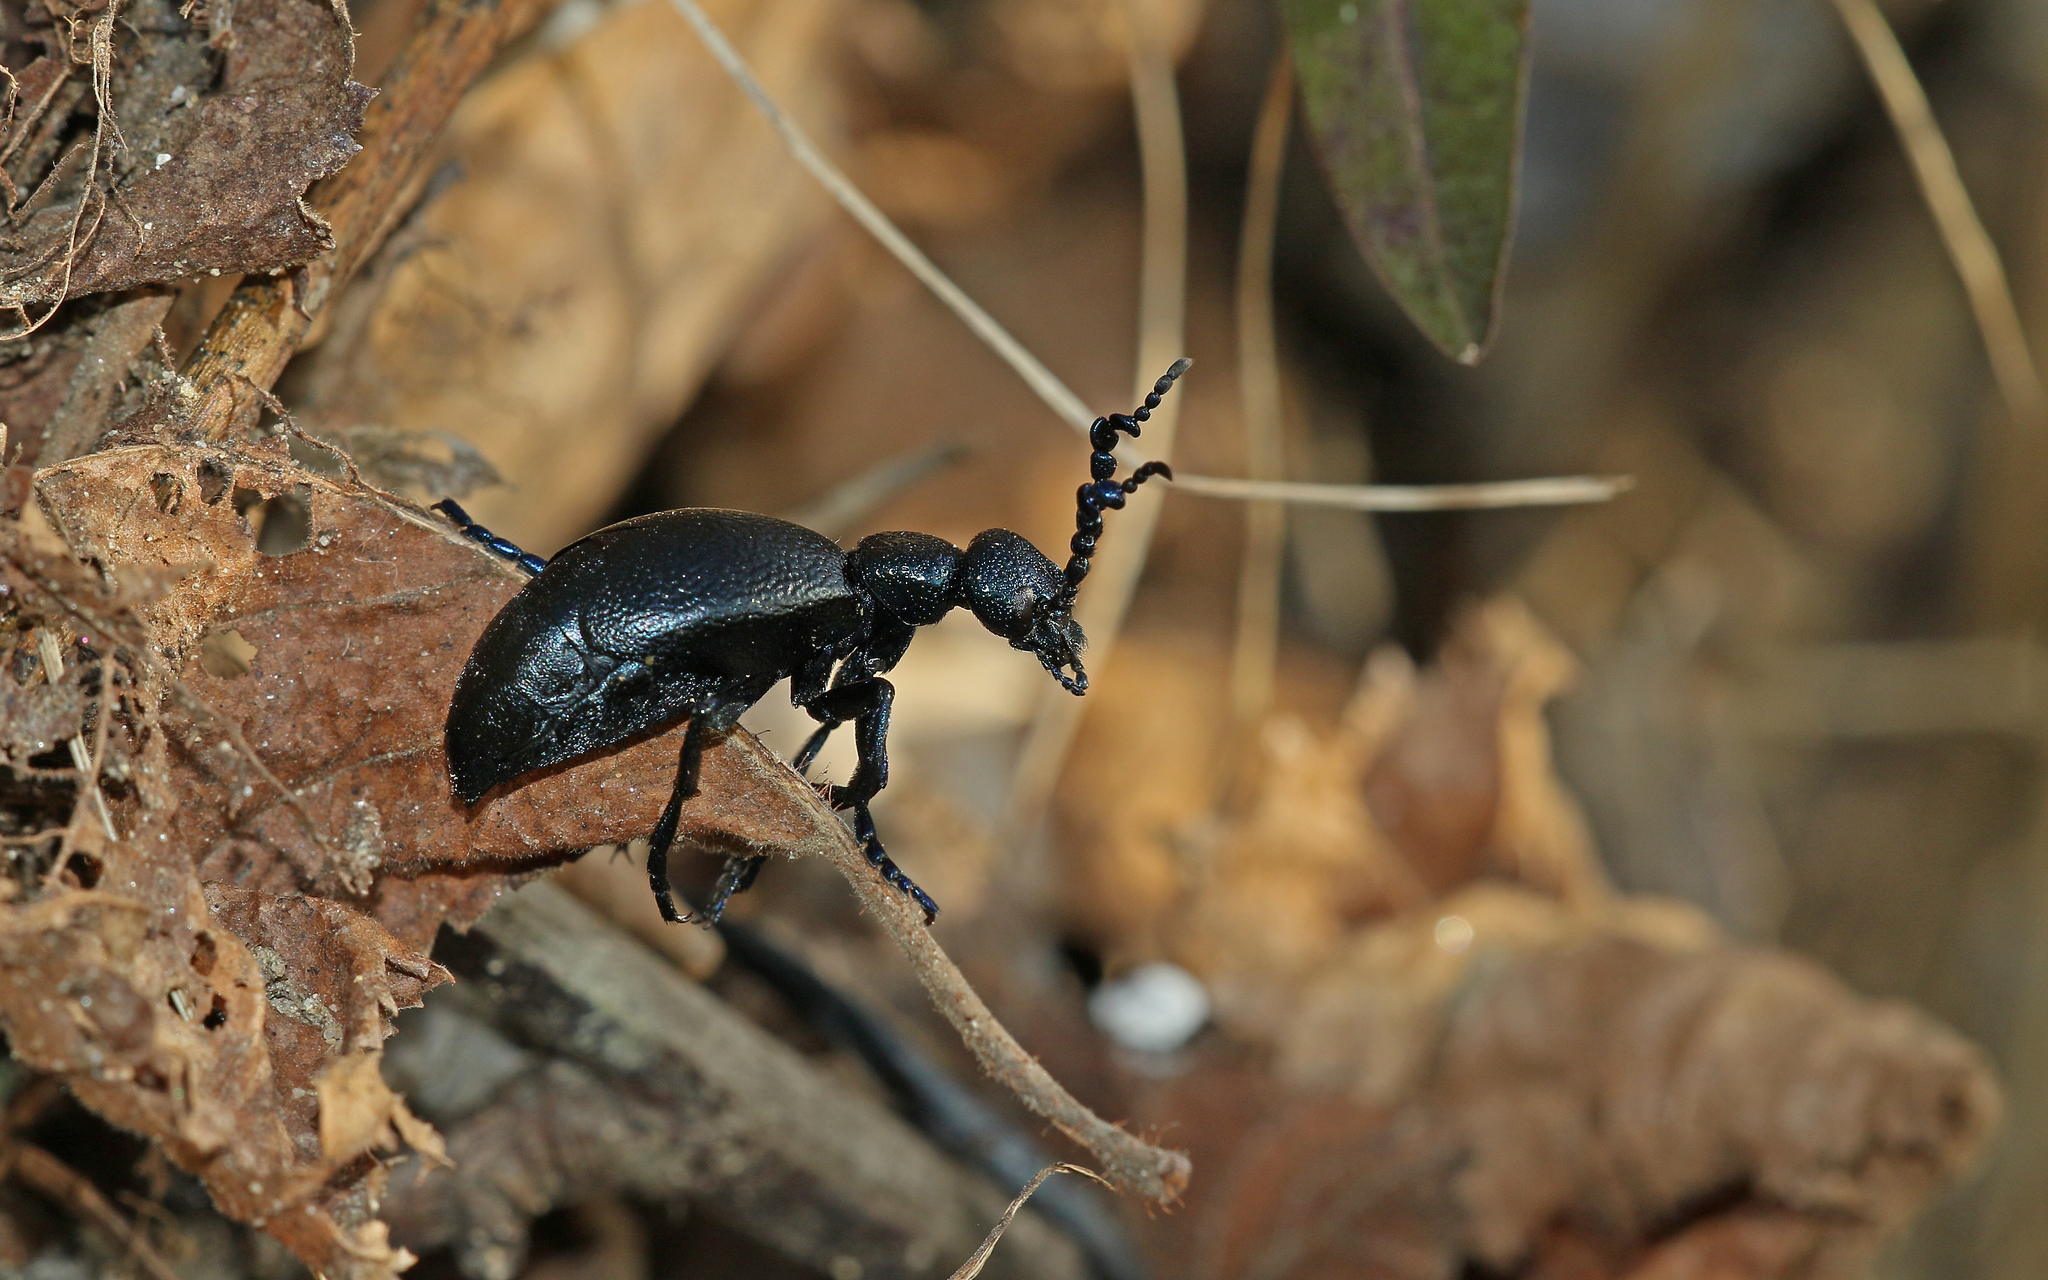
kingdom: Animalia
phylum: Arthropoda
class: Insecta
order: Coleoptera
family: Meloidae
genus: Meloe
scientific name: Meloe proscarabaeus
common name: Black oil-beetle
